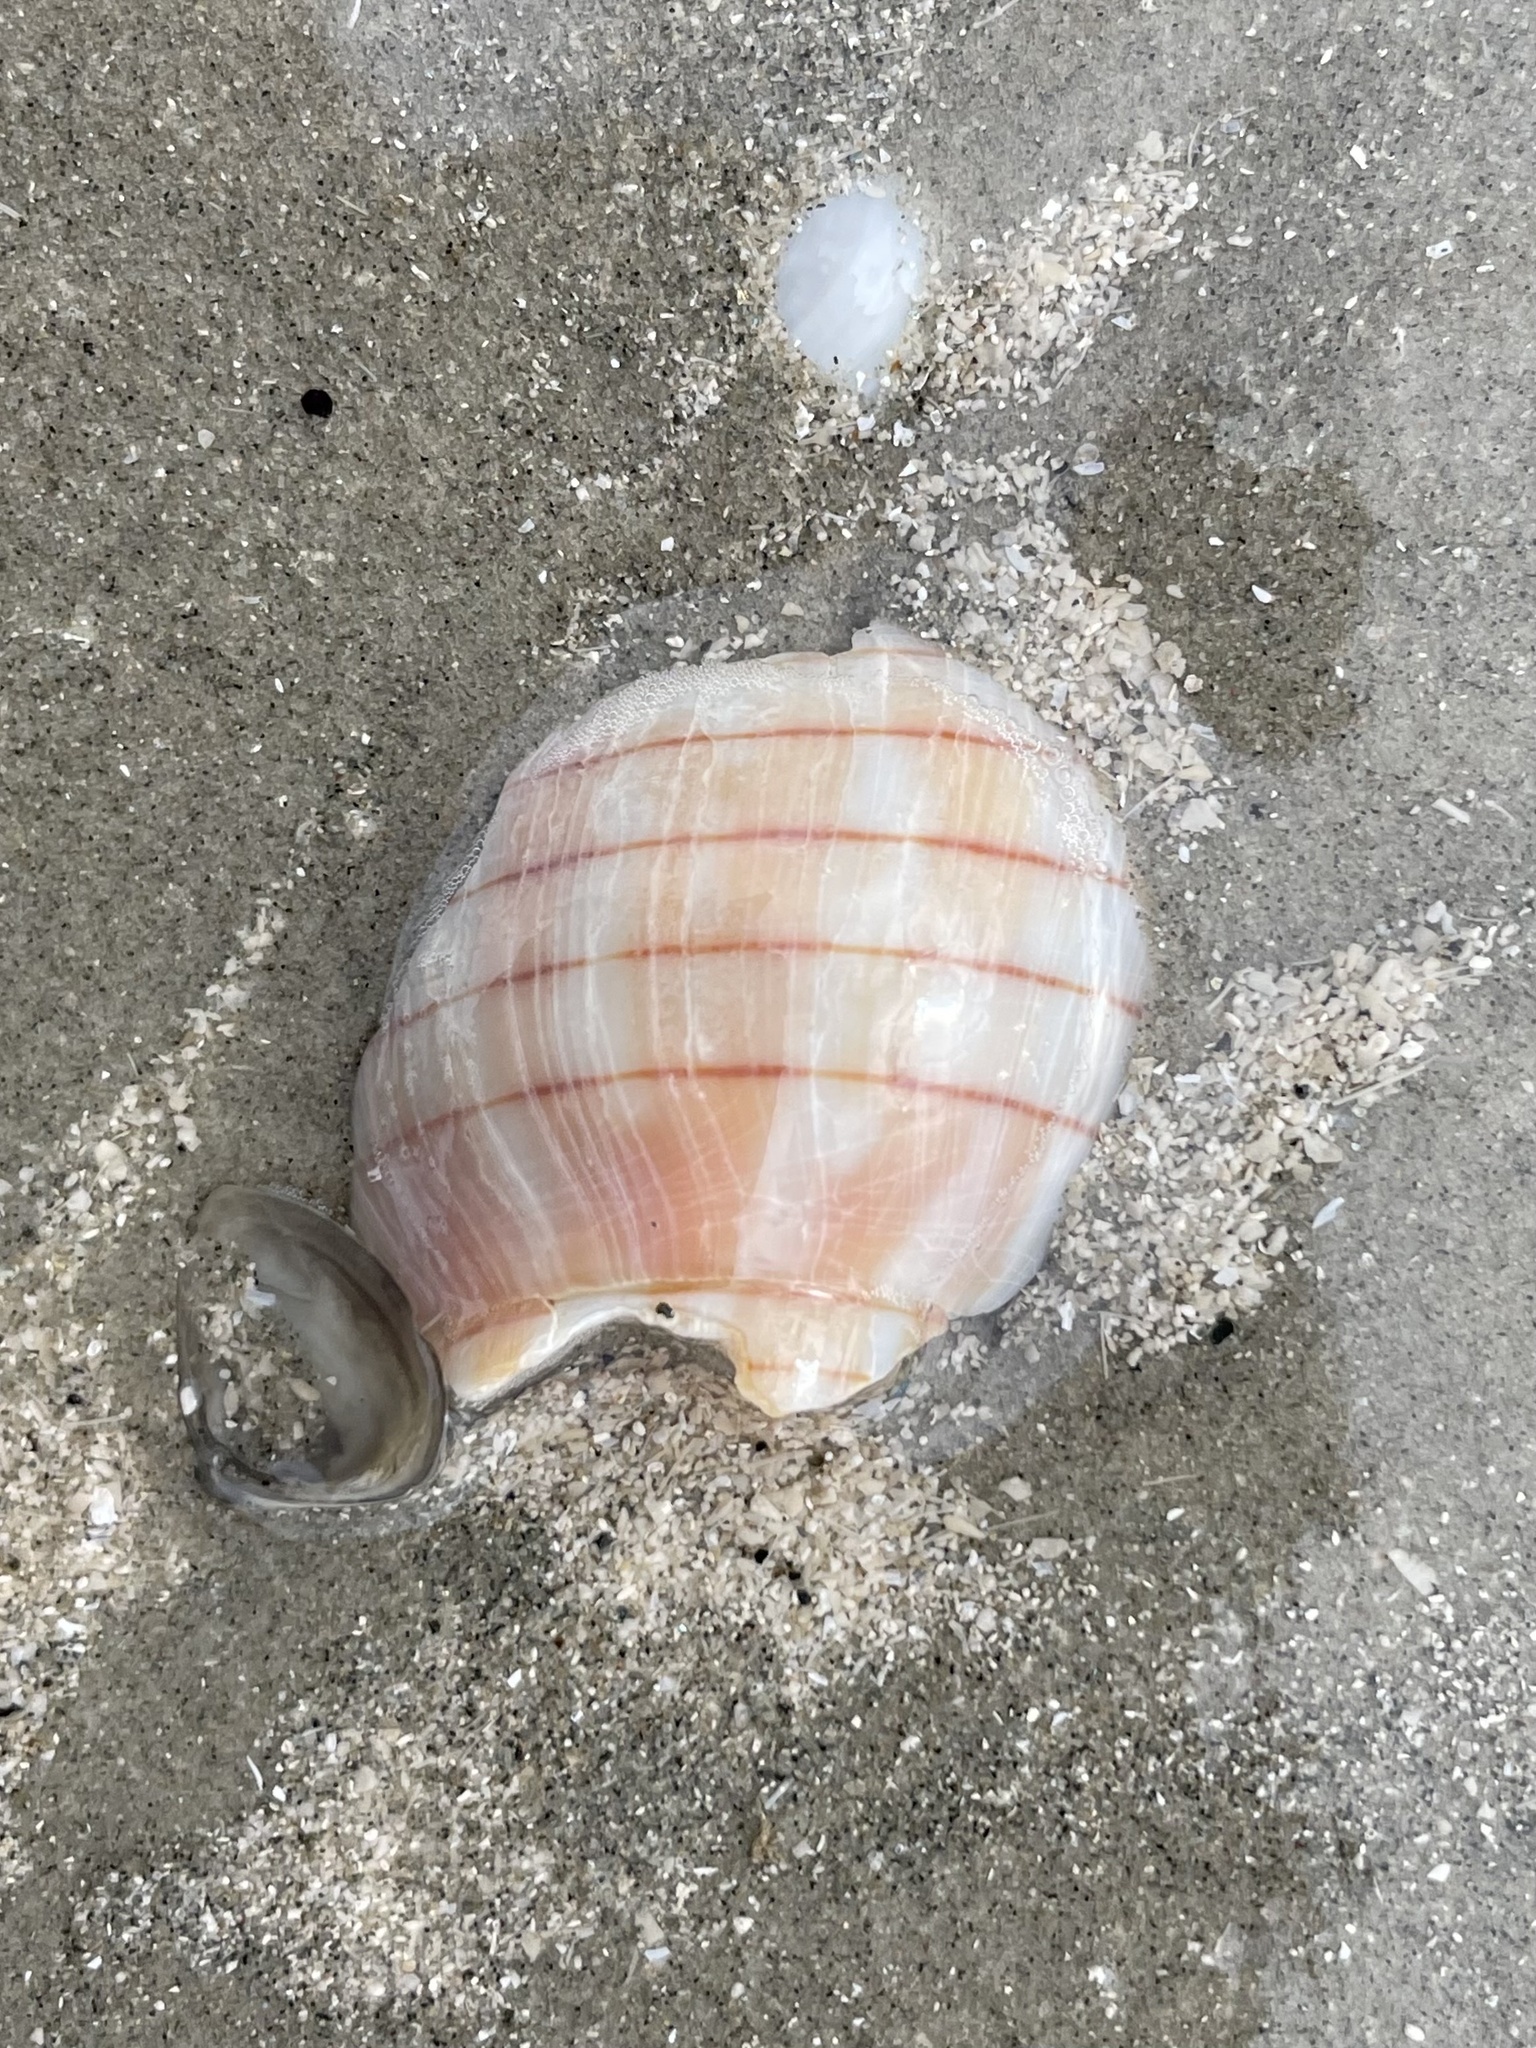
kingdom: Animalia
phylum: Mollusca
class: Gastropoda
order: Neogastropoda
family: Fasciolariidae
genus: Cinctura
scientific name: Cinctura lilium
